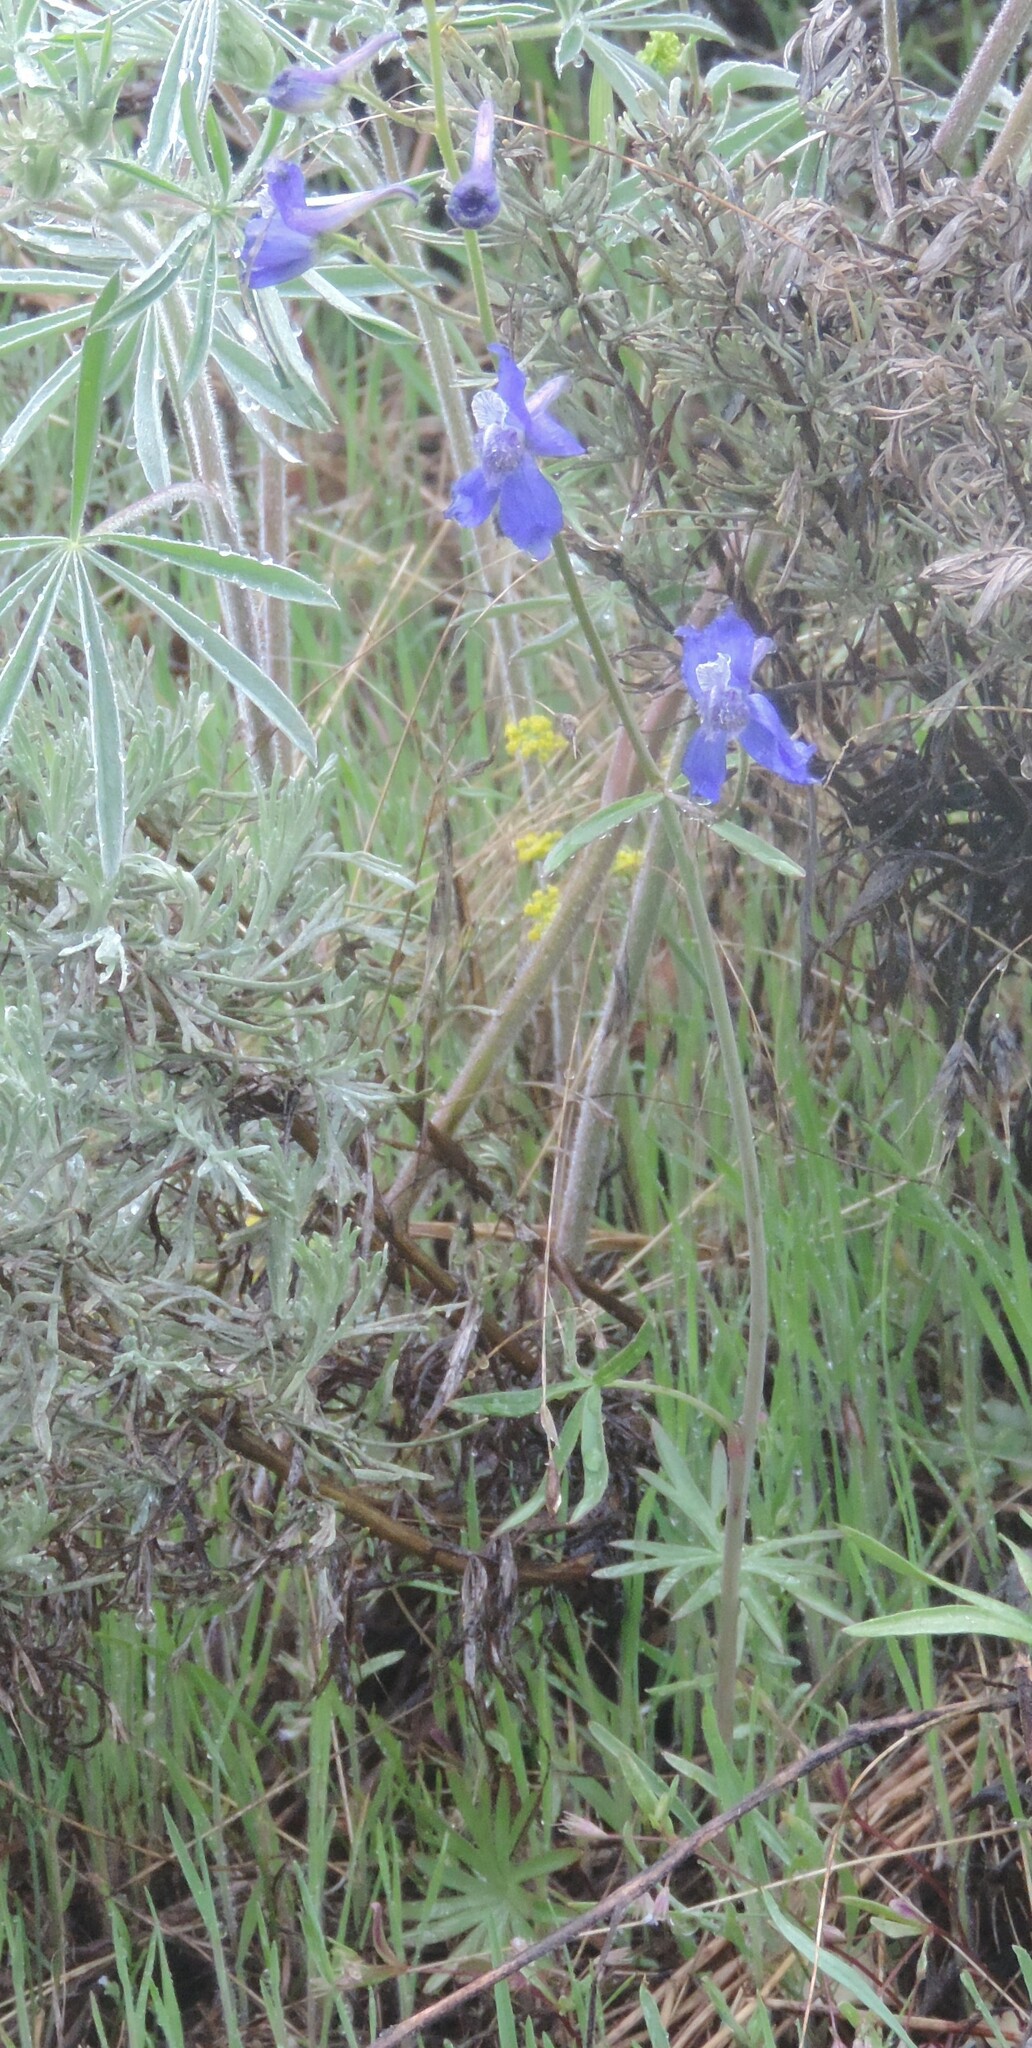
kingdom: Plantae
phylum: Tracheophyta
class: Magnoliopsida
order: Ranunculales
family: Ranunculaceae
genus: Delphinium
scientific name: Delphinium nuttallianum
